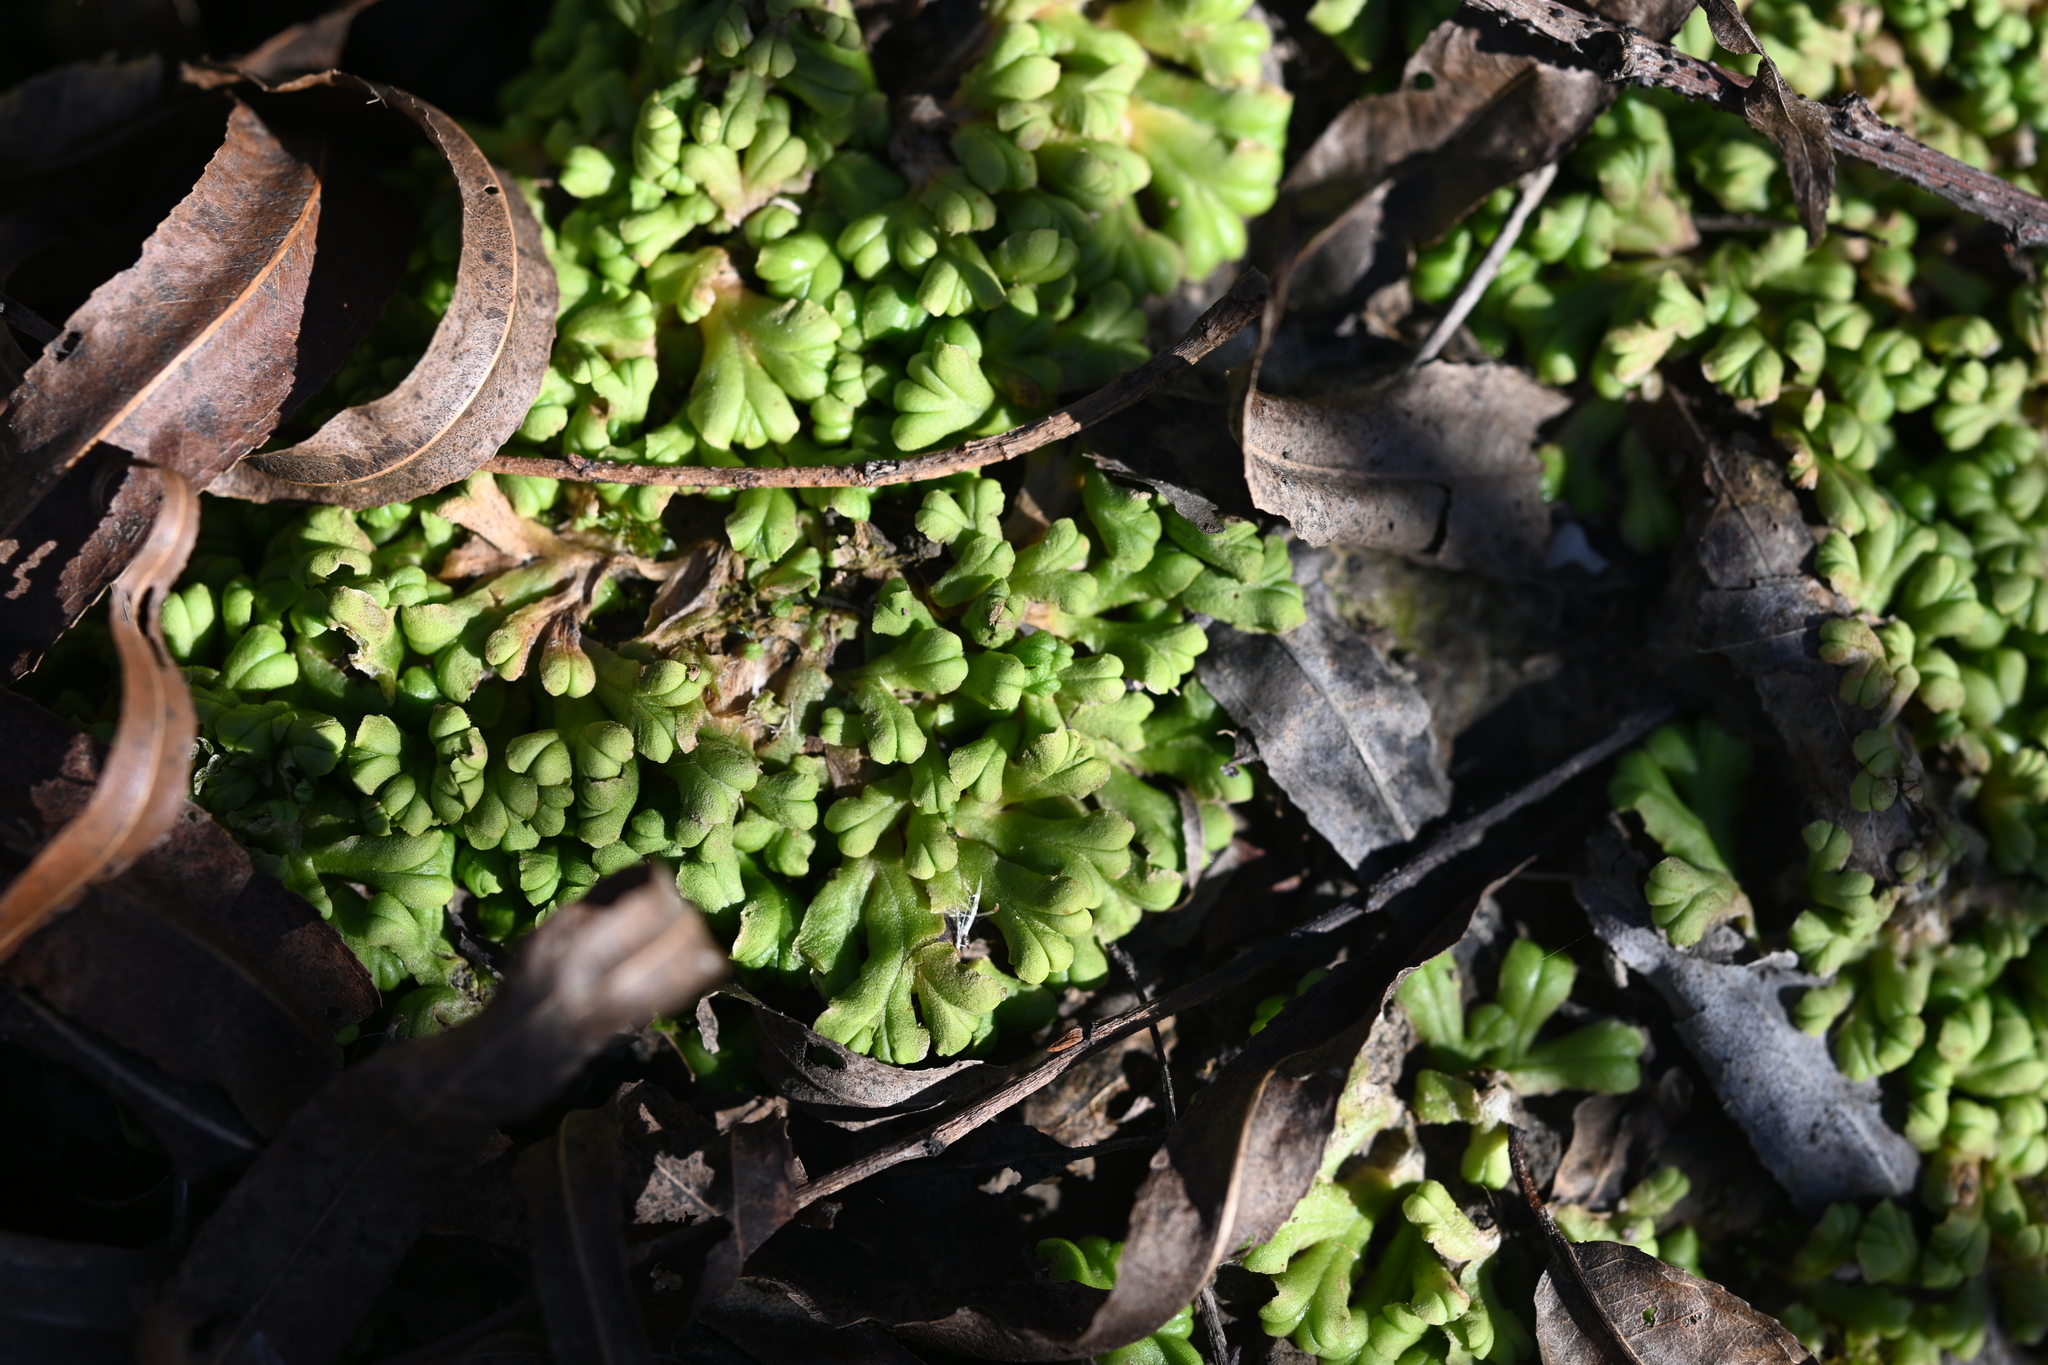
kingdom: Plantae
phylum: Marchantiophyta
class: Marchantiopsida
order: Marchantiales
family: Ricciaceae
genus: Ricciocarpos
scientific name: Ricciocarpos natans
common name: Purple-fringed liverwort
